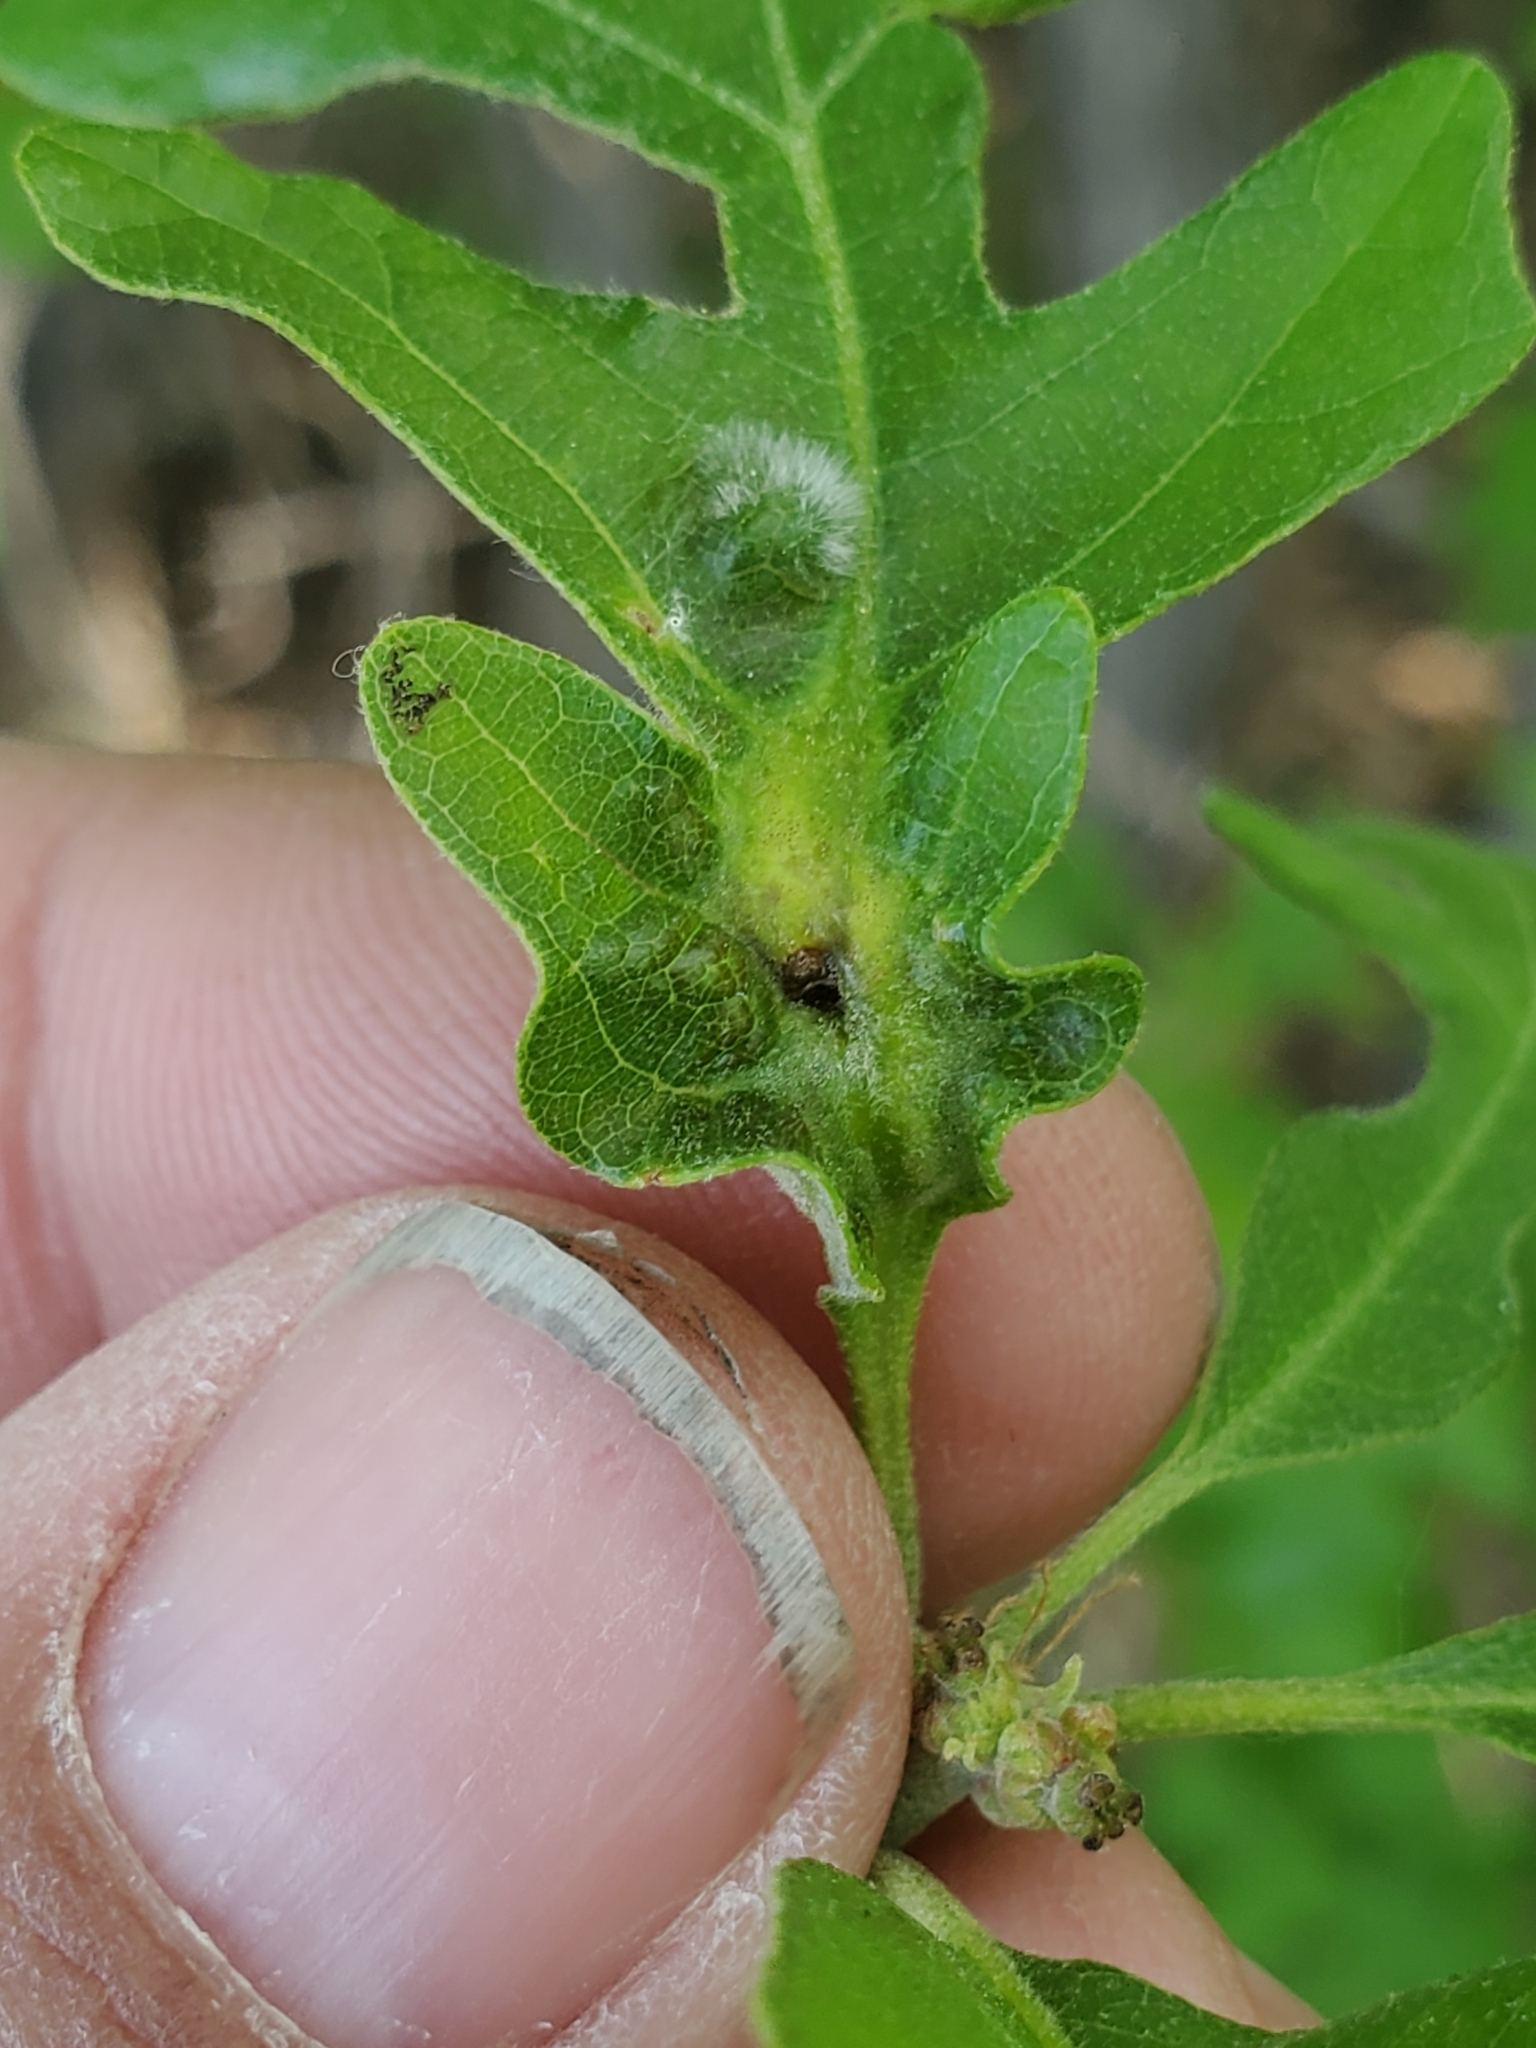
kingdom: Animalia
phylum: Arthropoda
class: Insecta
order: Hymenoptera
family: Cynipidae
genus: Bassettia
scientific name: Bassettia flavipes
